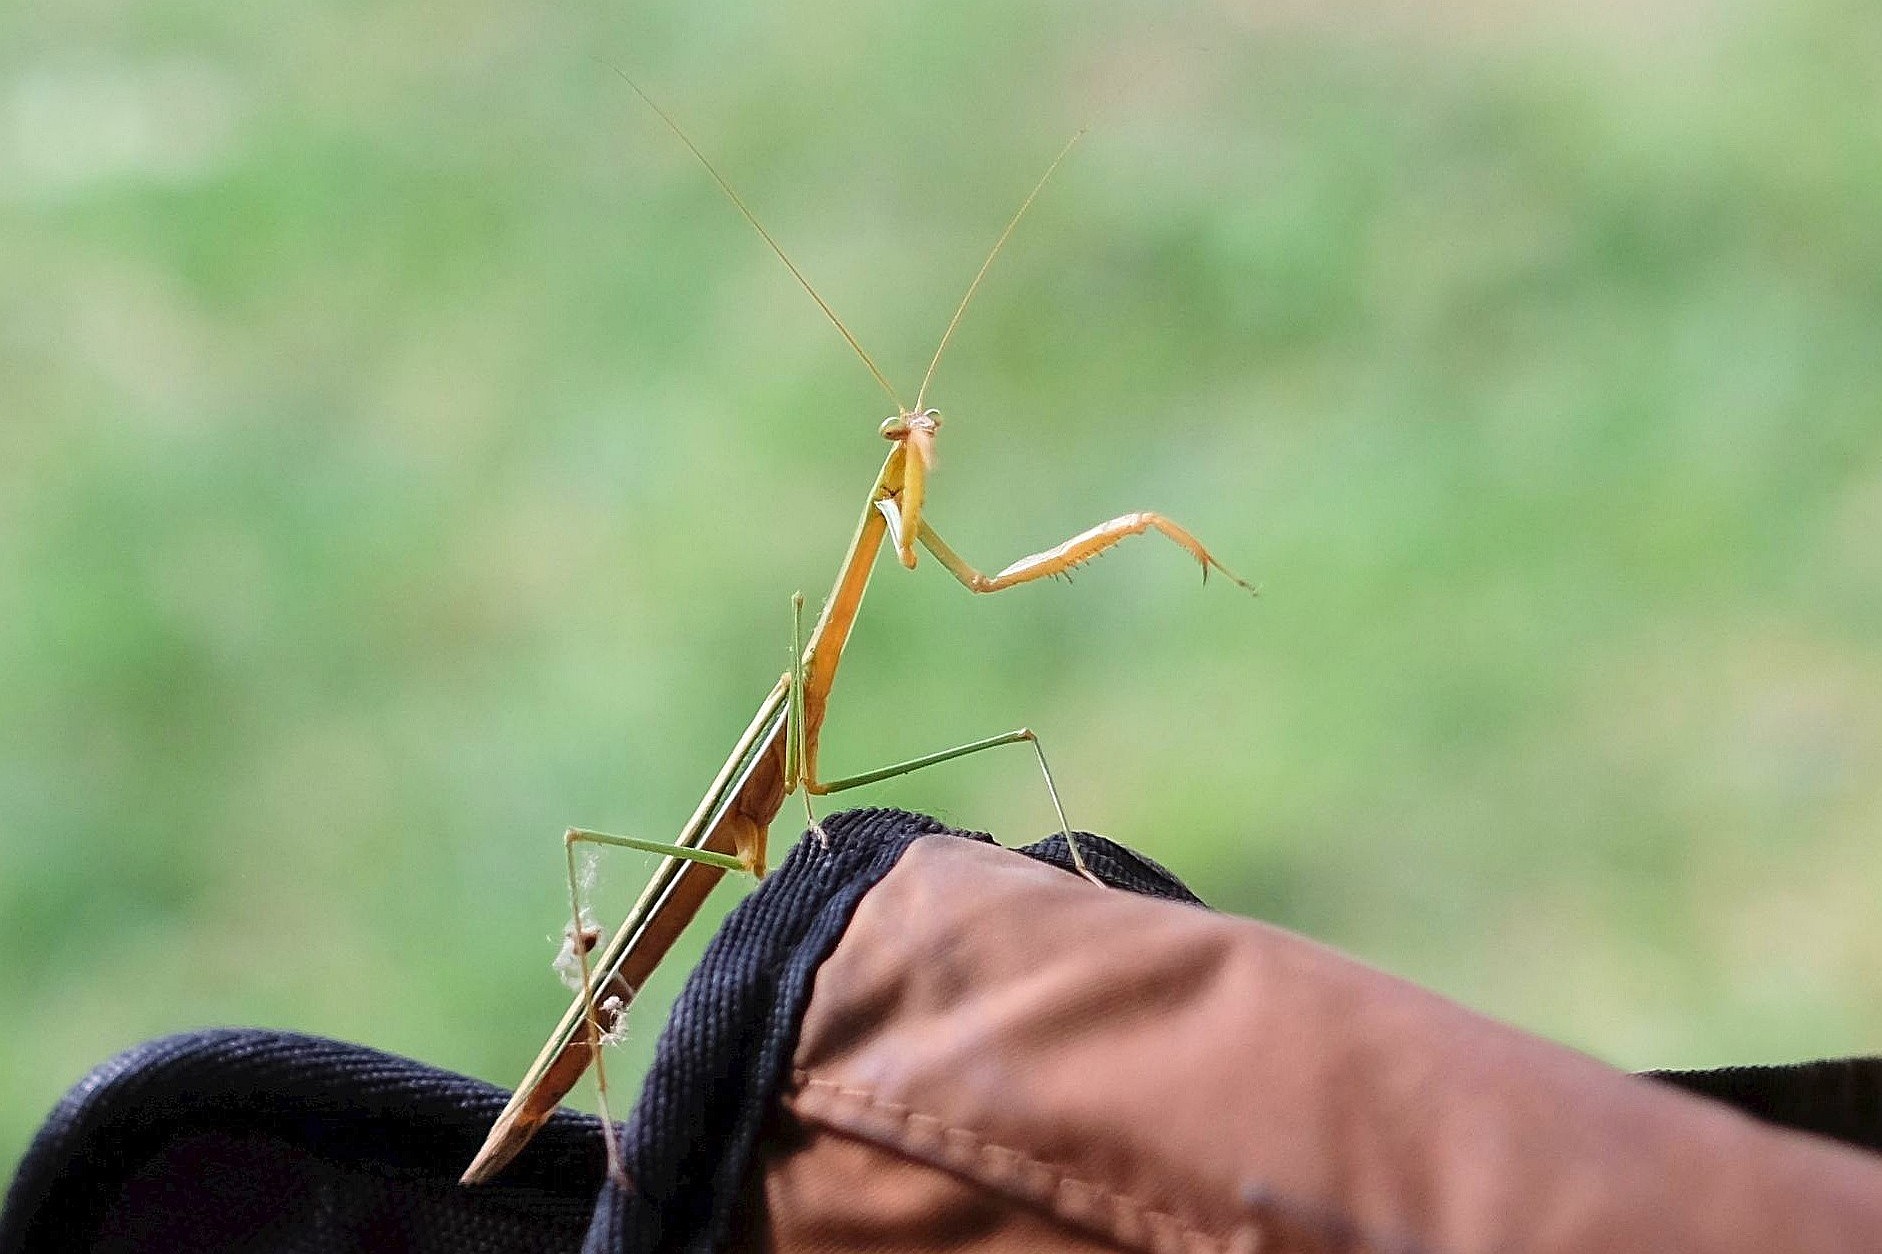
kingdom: Animalia
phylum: Arthropoda
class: Insecta
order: Mantodea
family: Mantidae
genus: Tenodera
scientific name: Tenodera australasiae
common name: Purple-winged mantis
